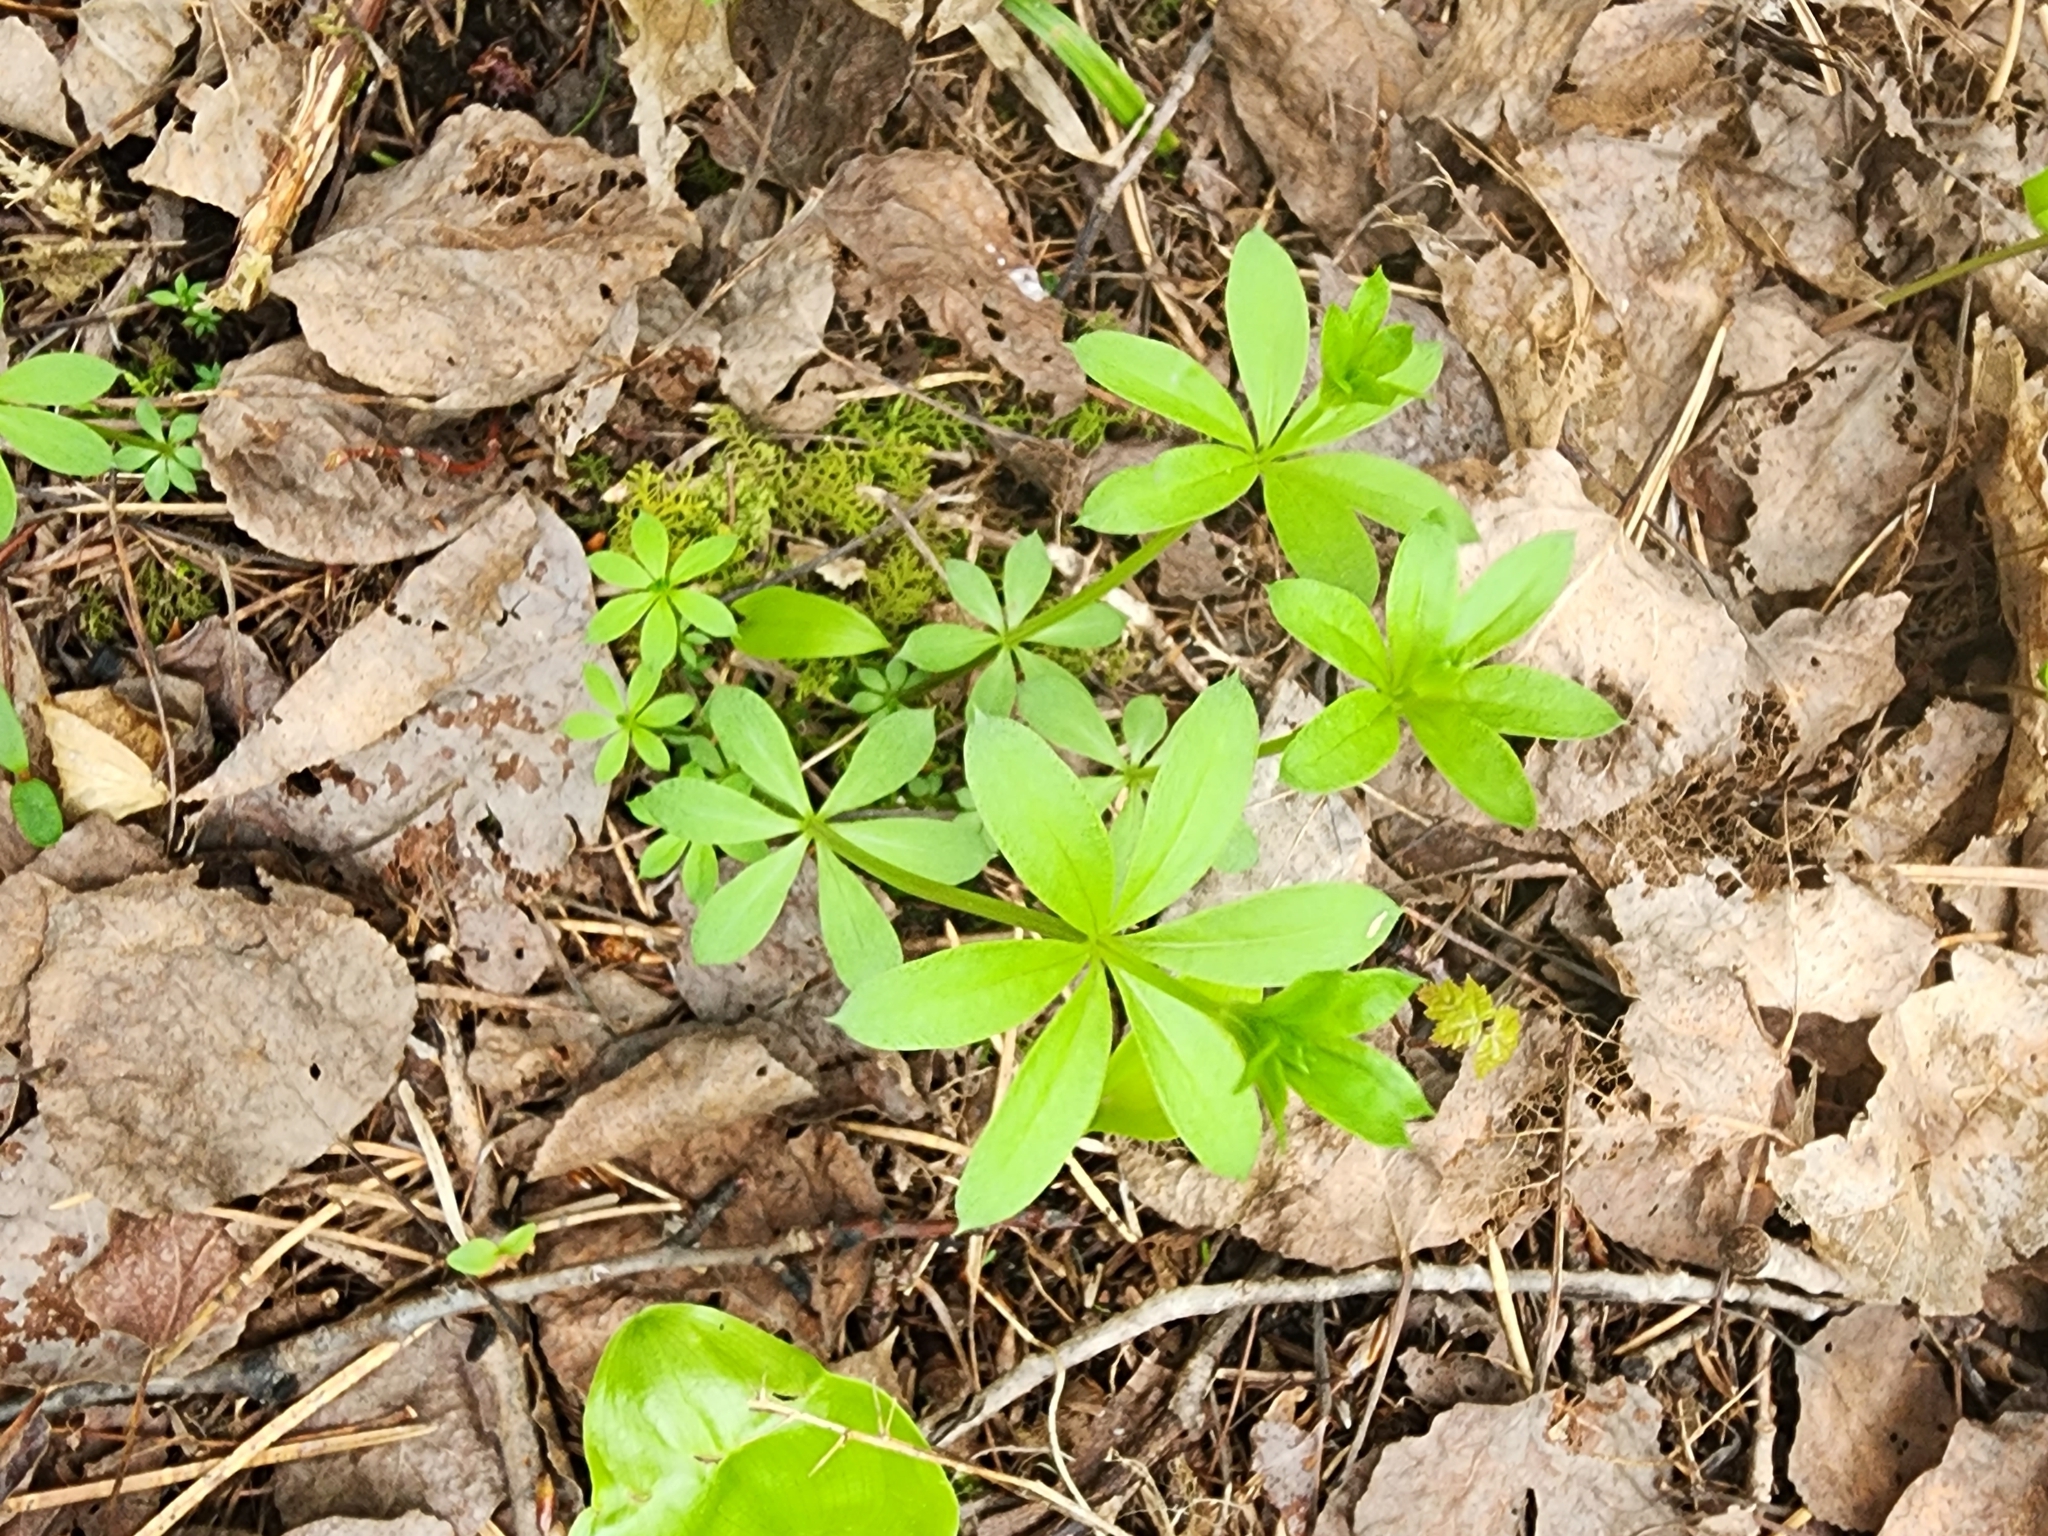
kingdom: Plantae
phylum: Tracheophyta
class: Magnoliopsida
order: Gentianales
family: Rubiaceae
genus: Galium
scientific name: Galium triflorum
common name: Fragrant bedstraw
